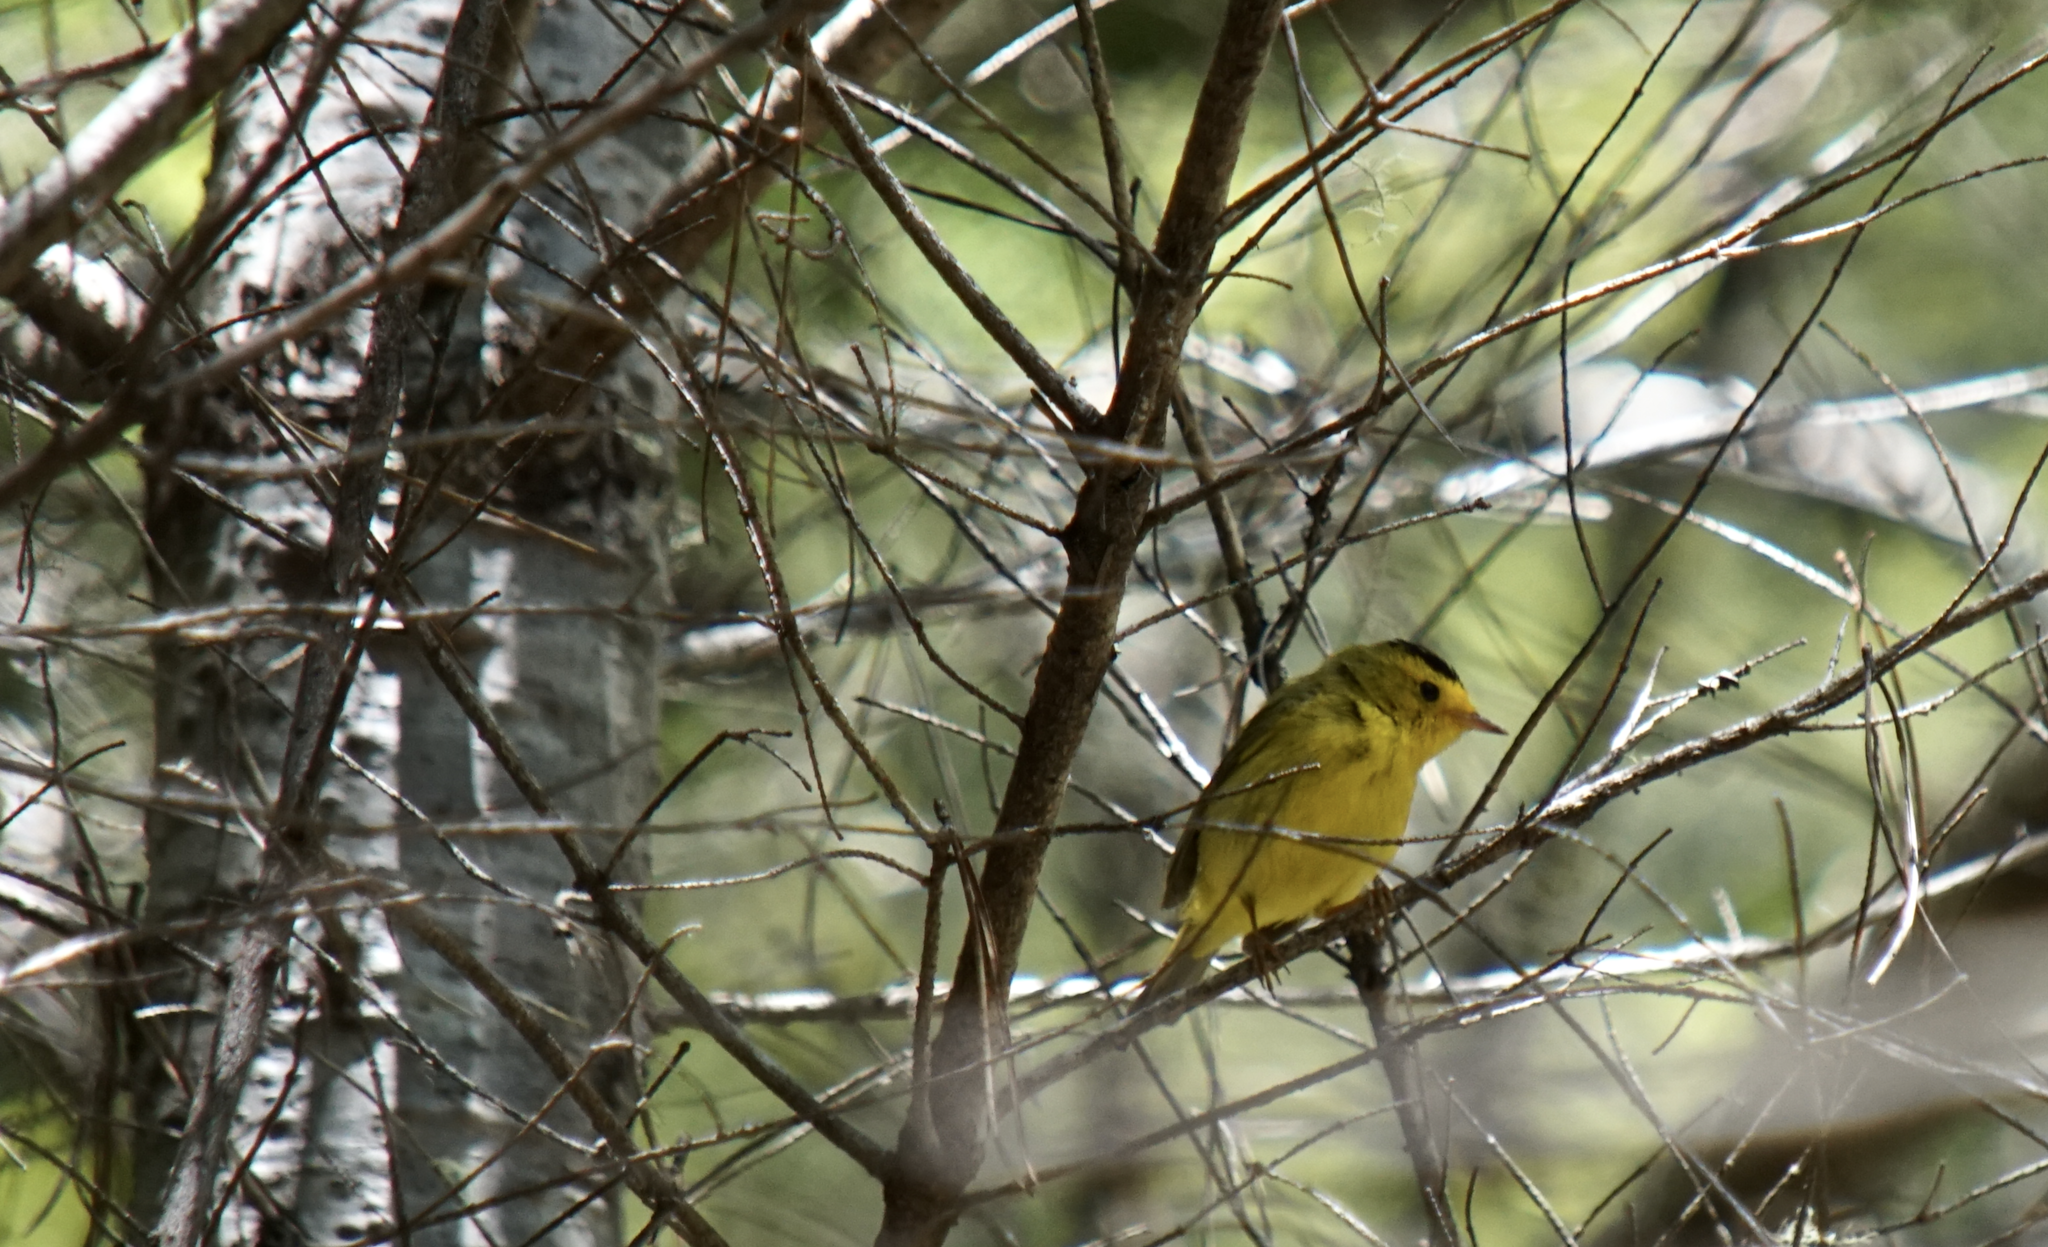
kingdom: Animalia
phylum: Chordata
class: Aves
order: Passeriformes
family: Parulidae
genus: Cardellina
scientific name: Cardellina pusilla
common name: Wilson's warbler
